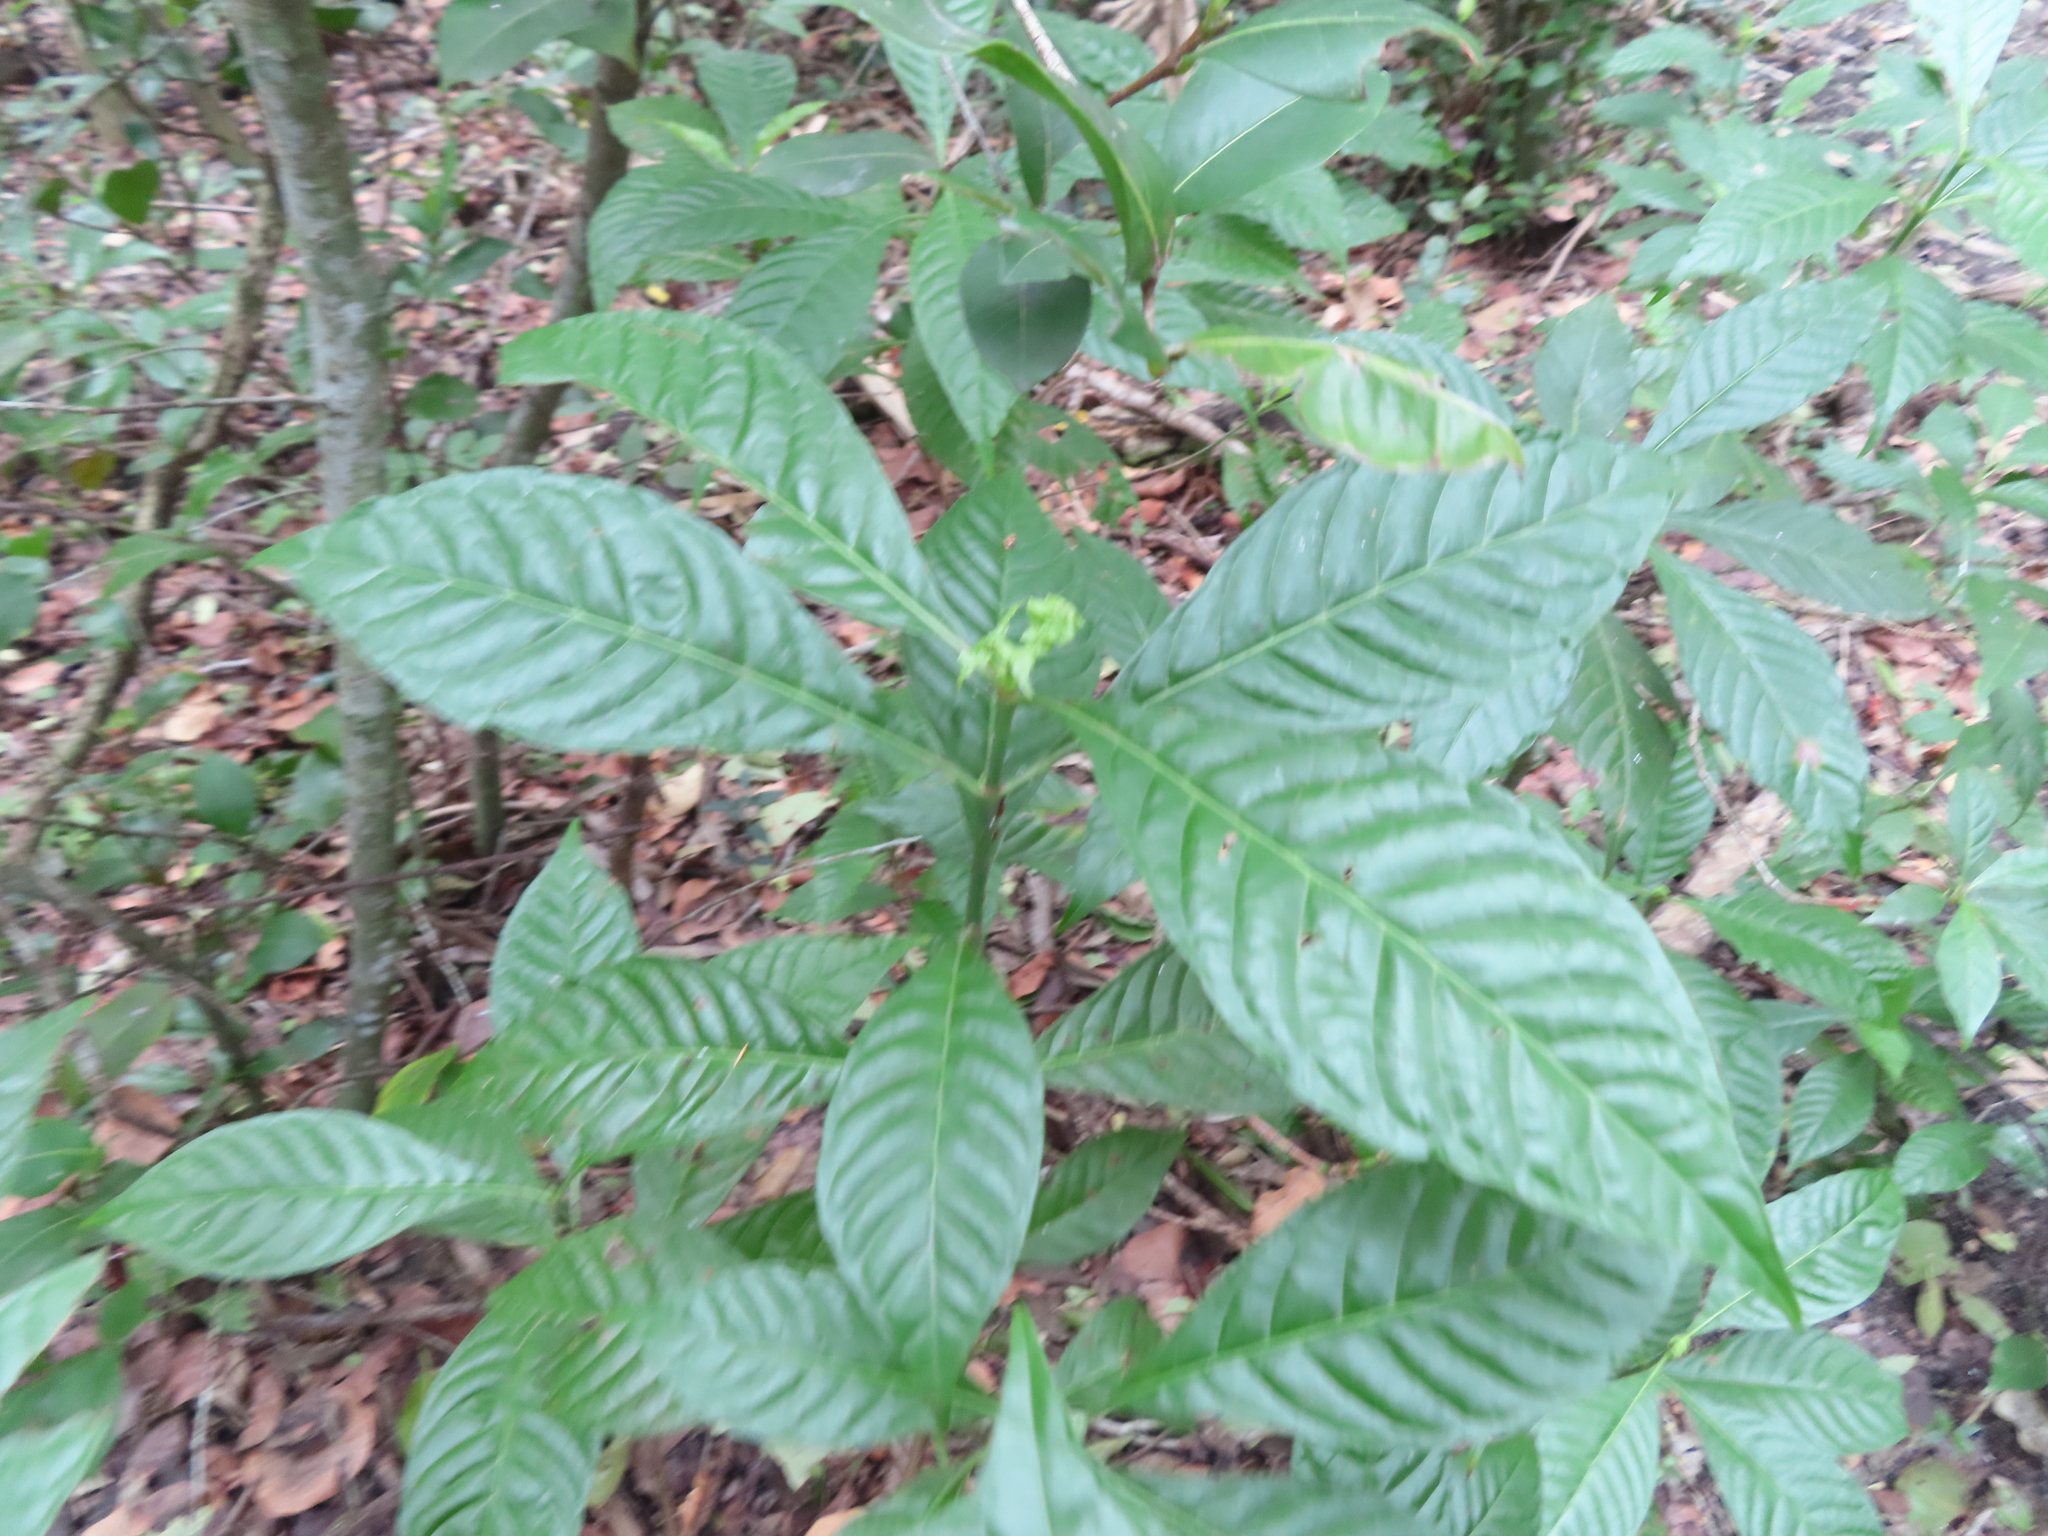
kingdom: Plantae
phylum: Tracheophyta
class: Magnoliopsida
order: Gentianales
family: Rubiaceae
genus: Psychotria
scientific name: Psychotria nervosa
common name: Bastard cankerberry
